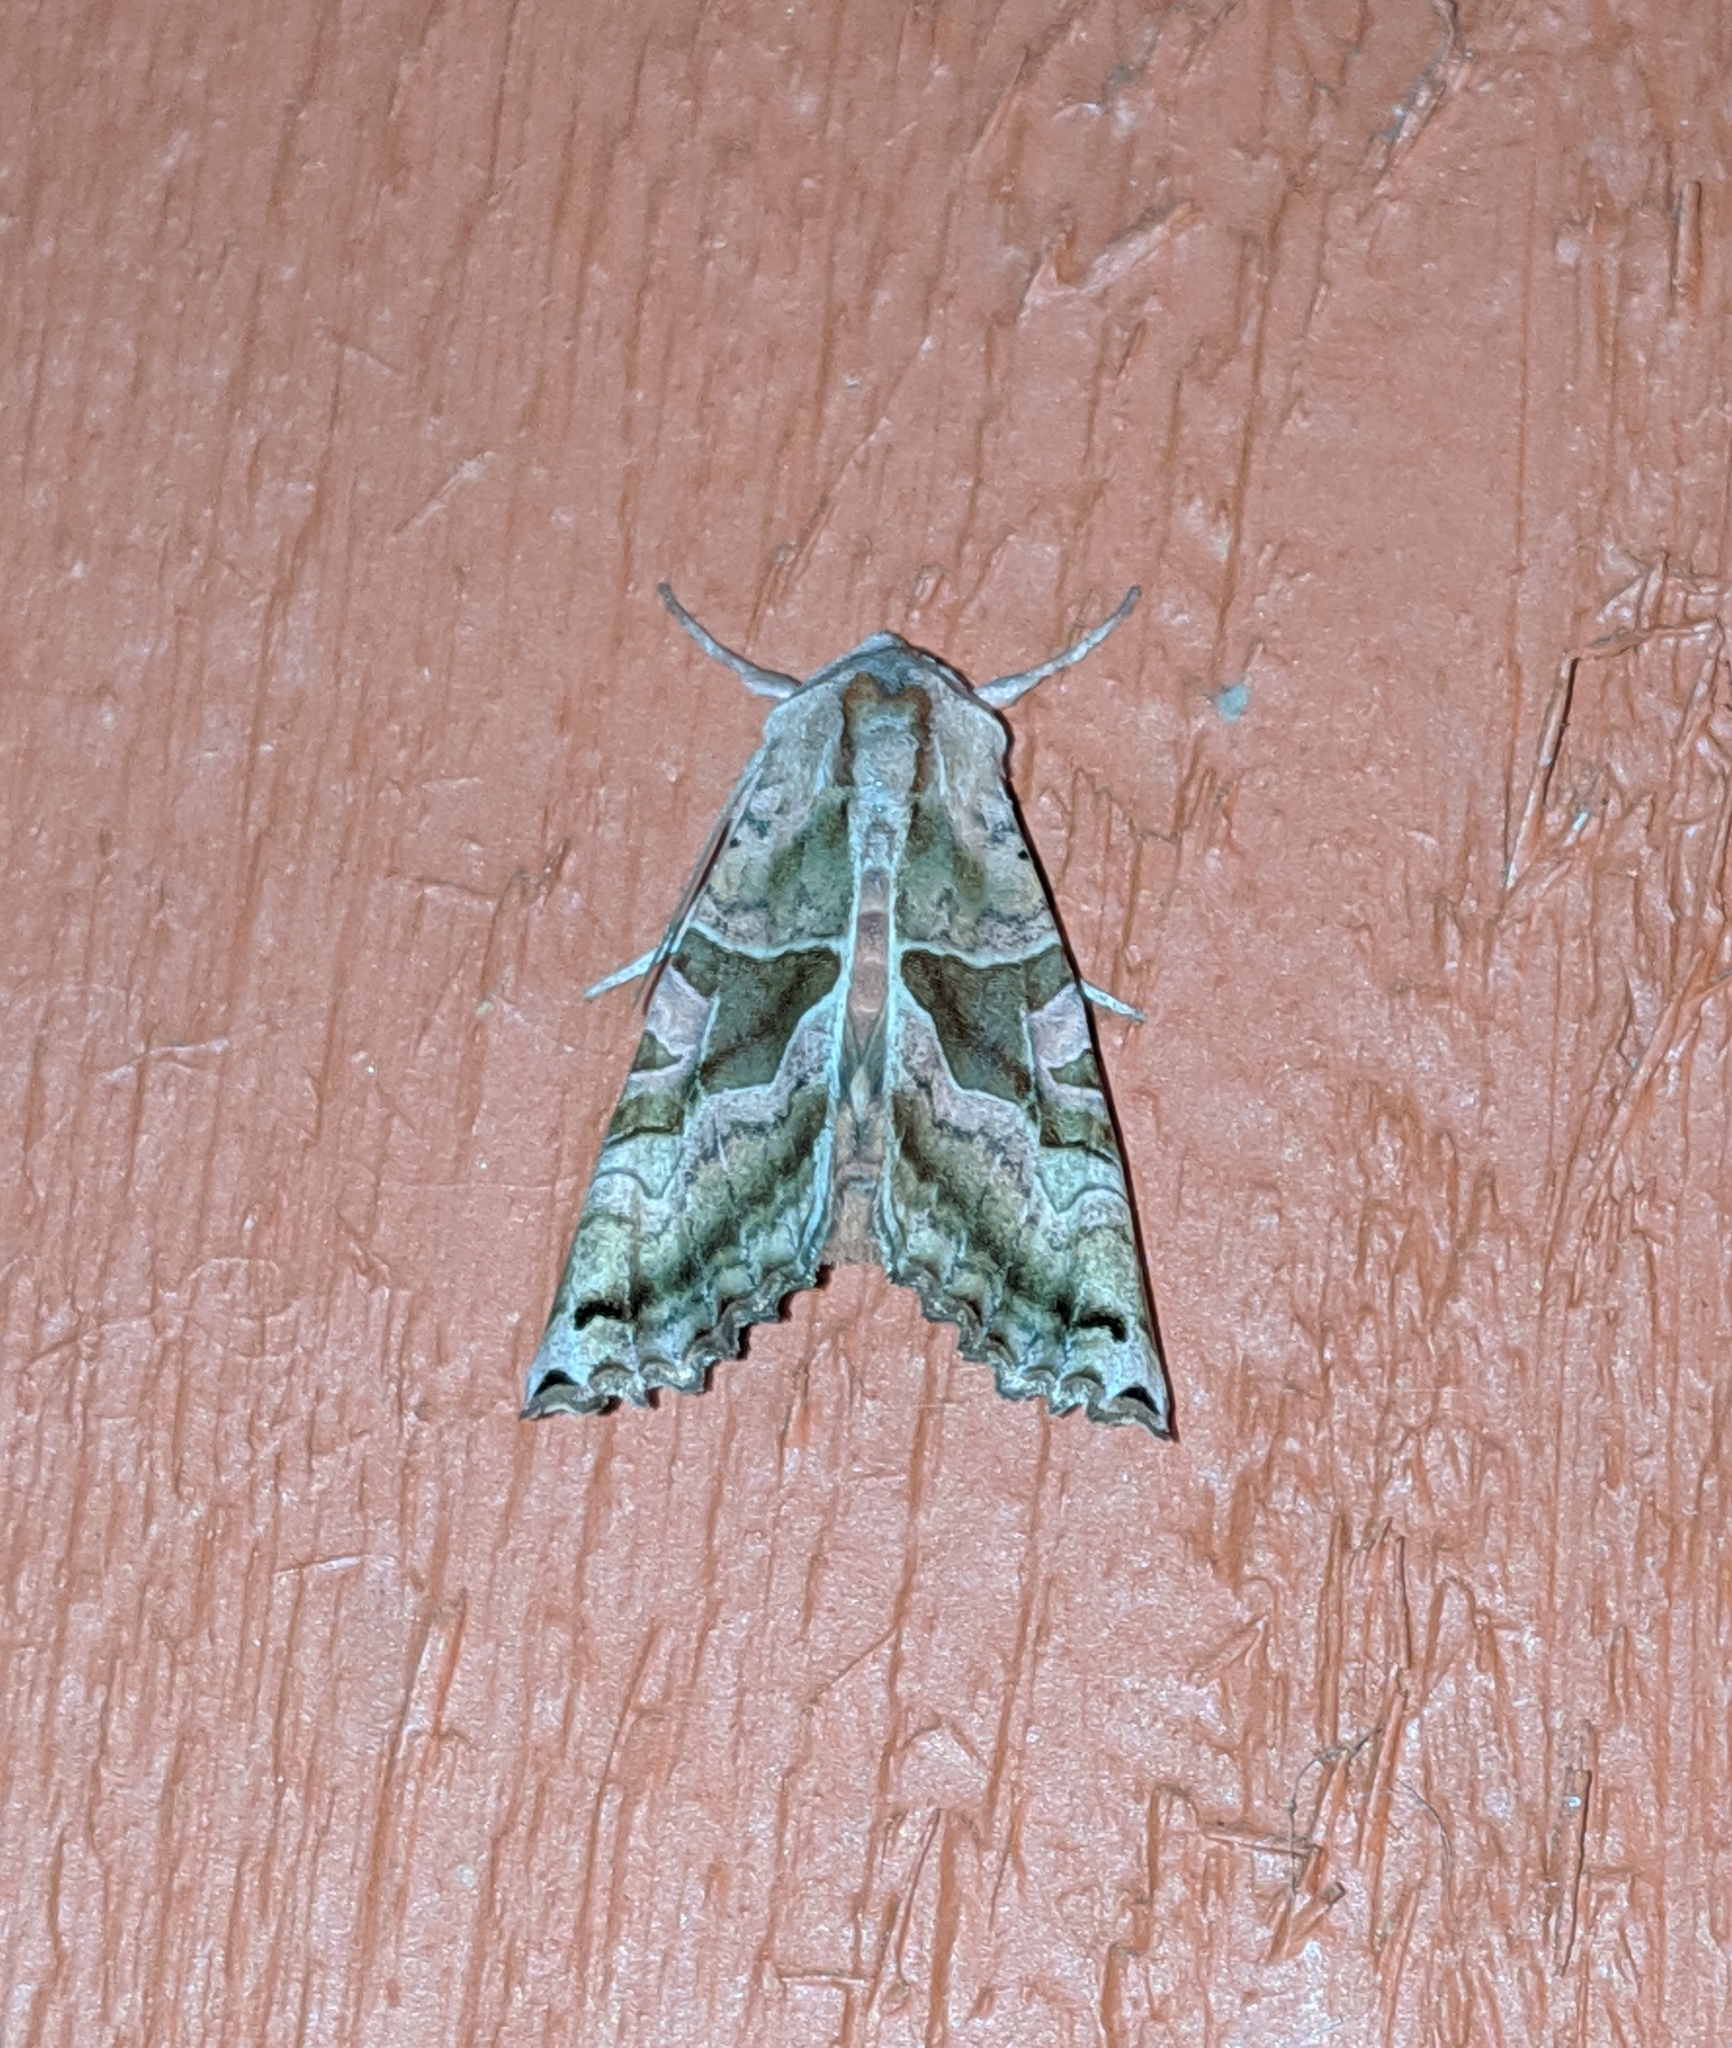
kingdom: Animalia
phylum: Arthropoda
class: Insecta
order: Lepidoptera
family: Noctuidae
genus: Phlogophora
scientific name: Phlogophora periculosa
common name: Brown angle shades
